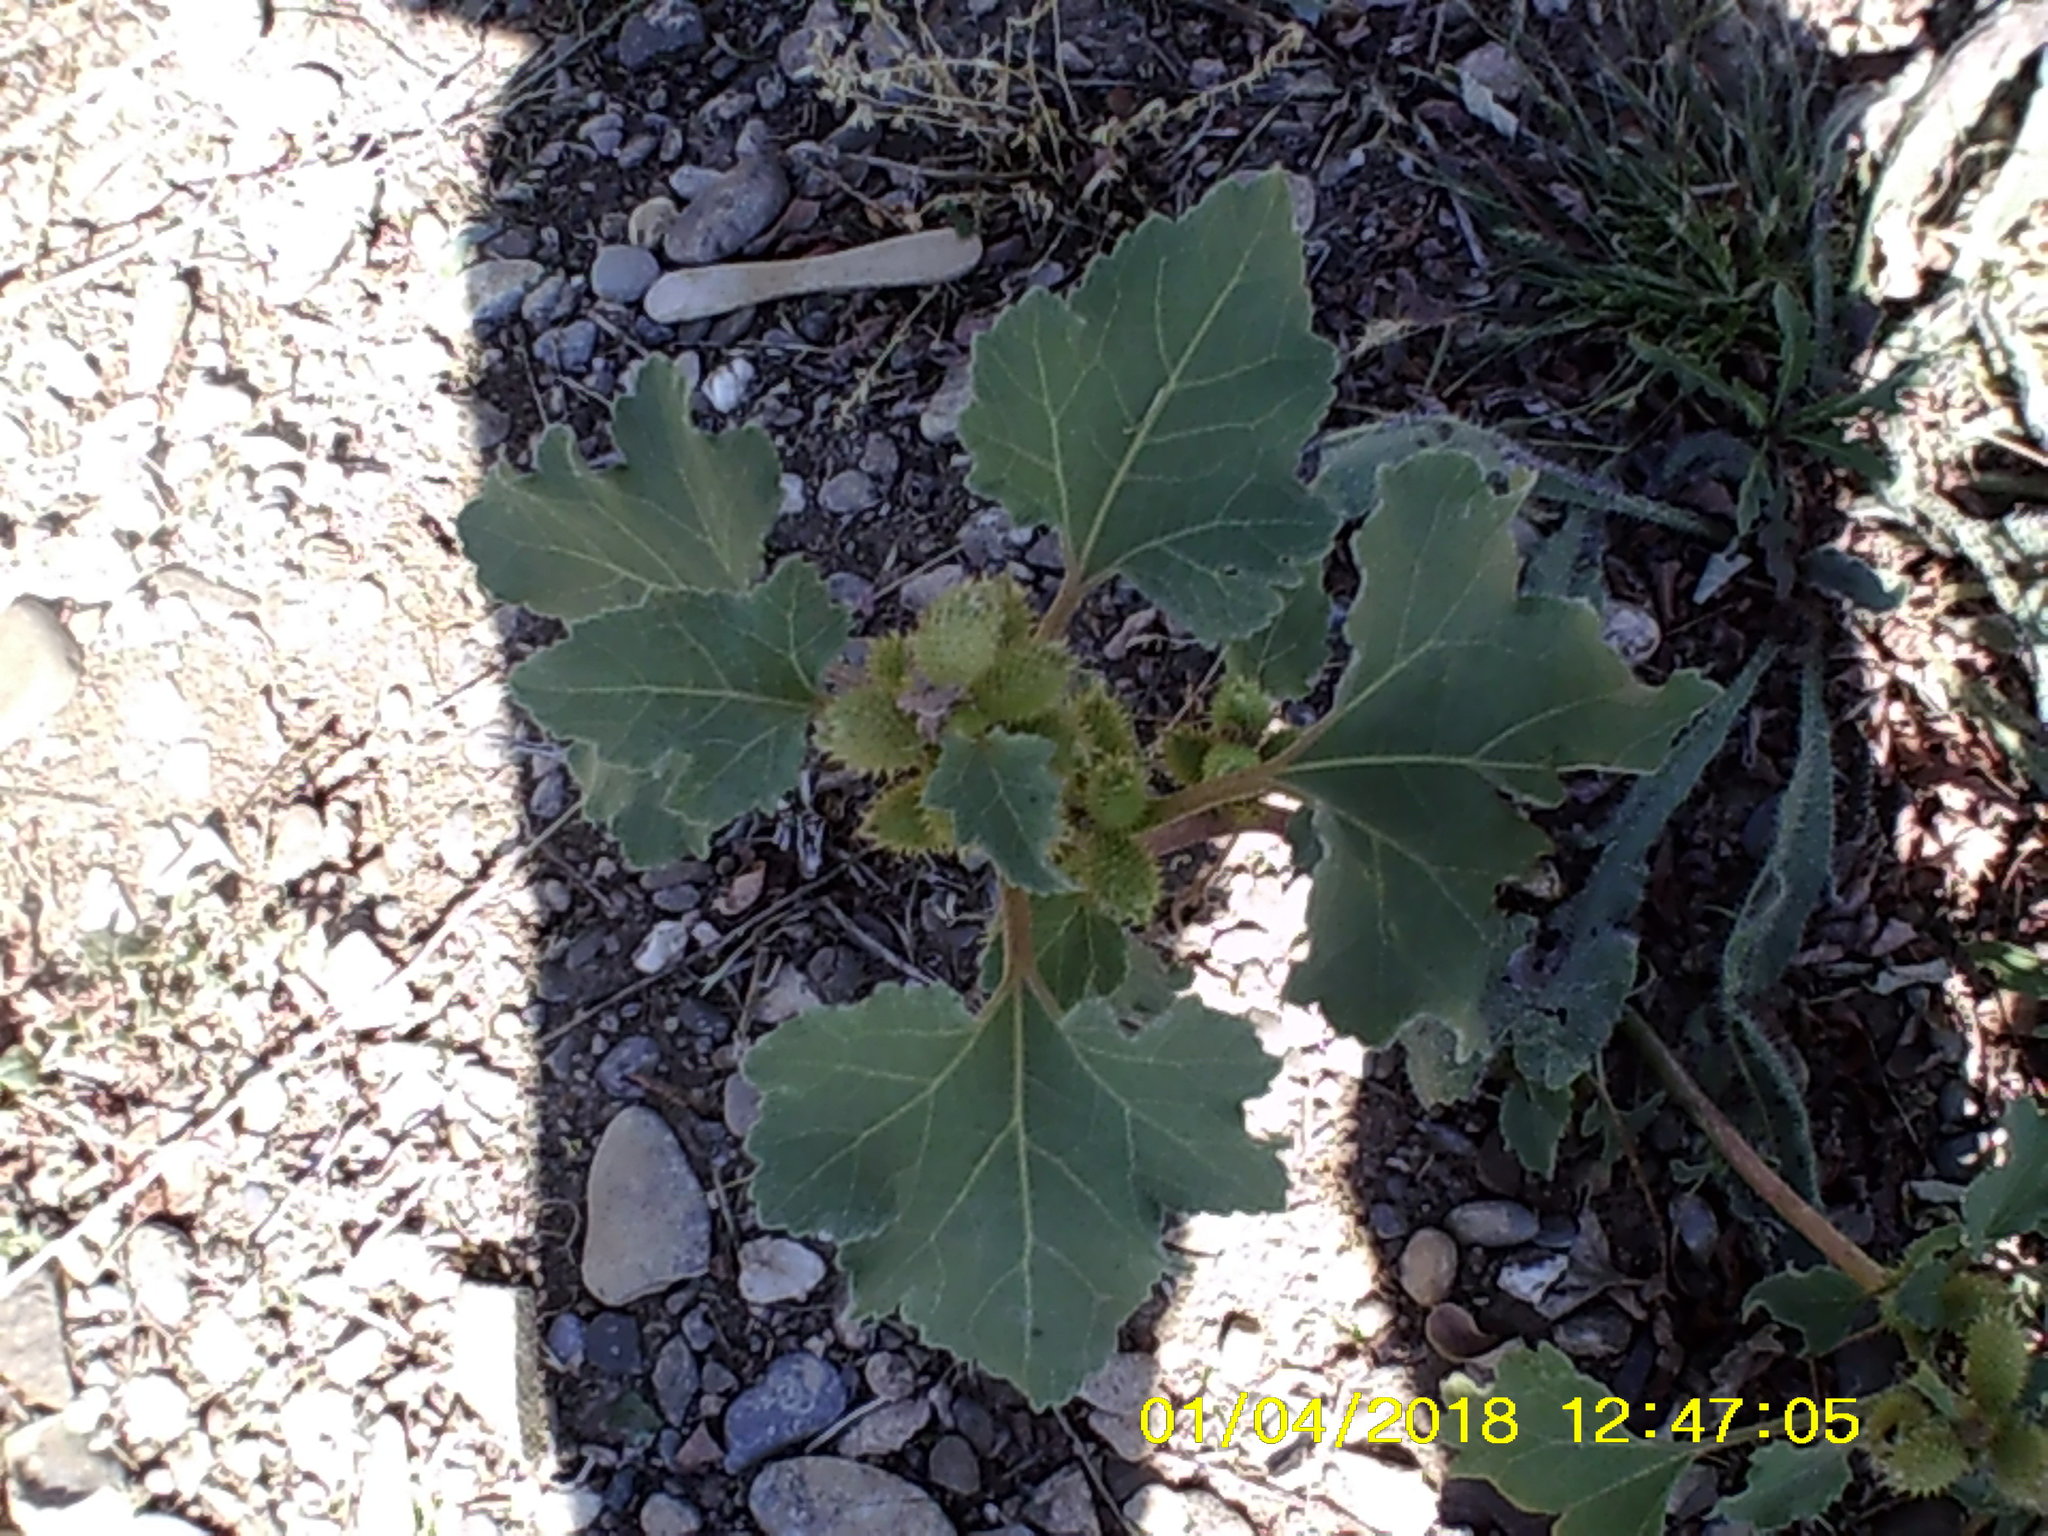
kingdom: Plantae
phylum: Tracheophyta
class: Magnoliopsida
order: Asterales
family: Asteraceae
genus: Xanthium
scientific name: Xanthium orientale
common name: Californian burr
